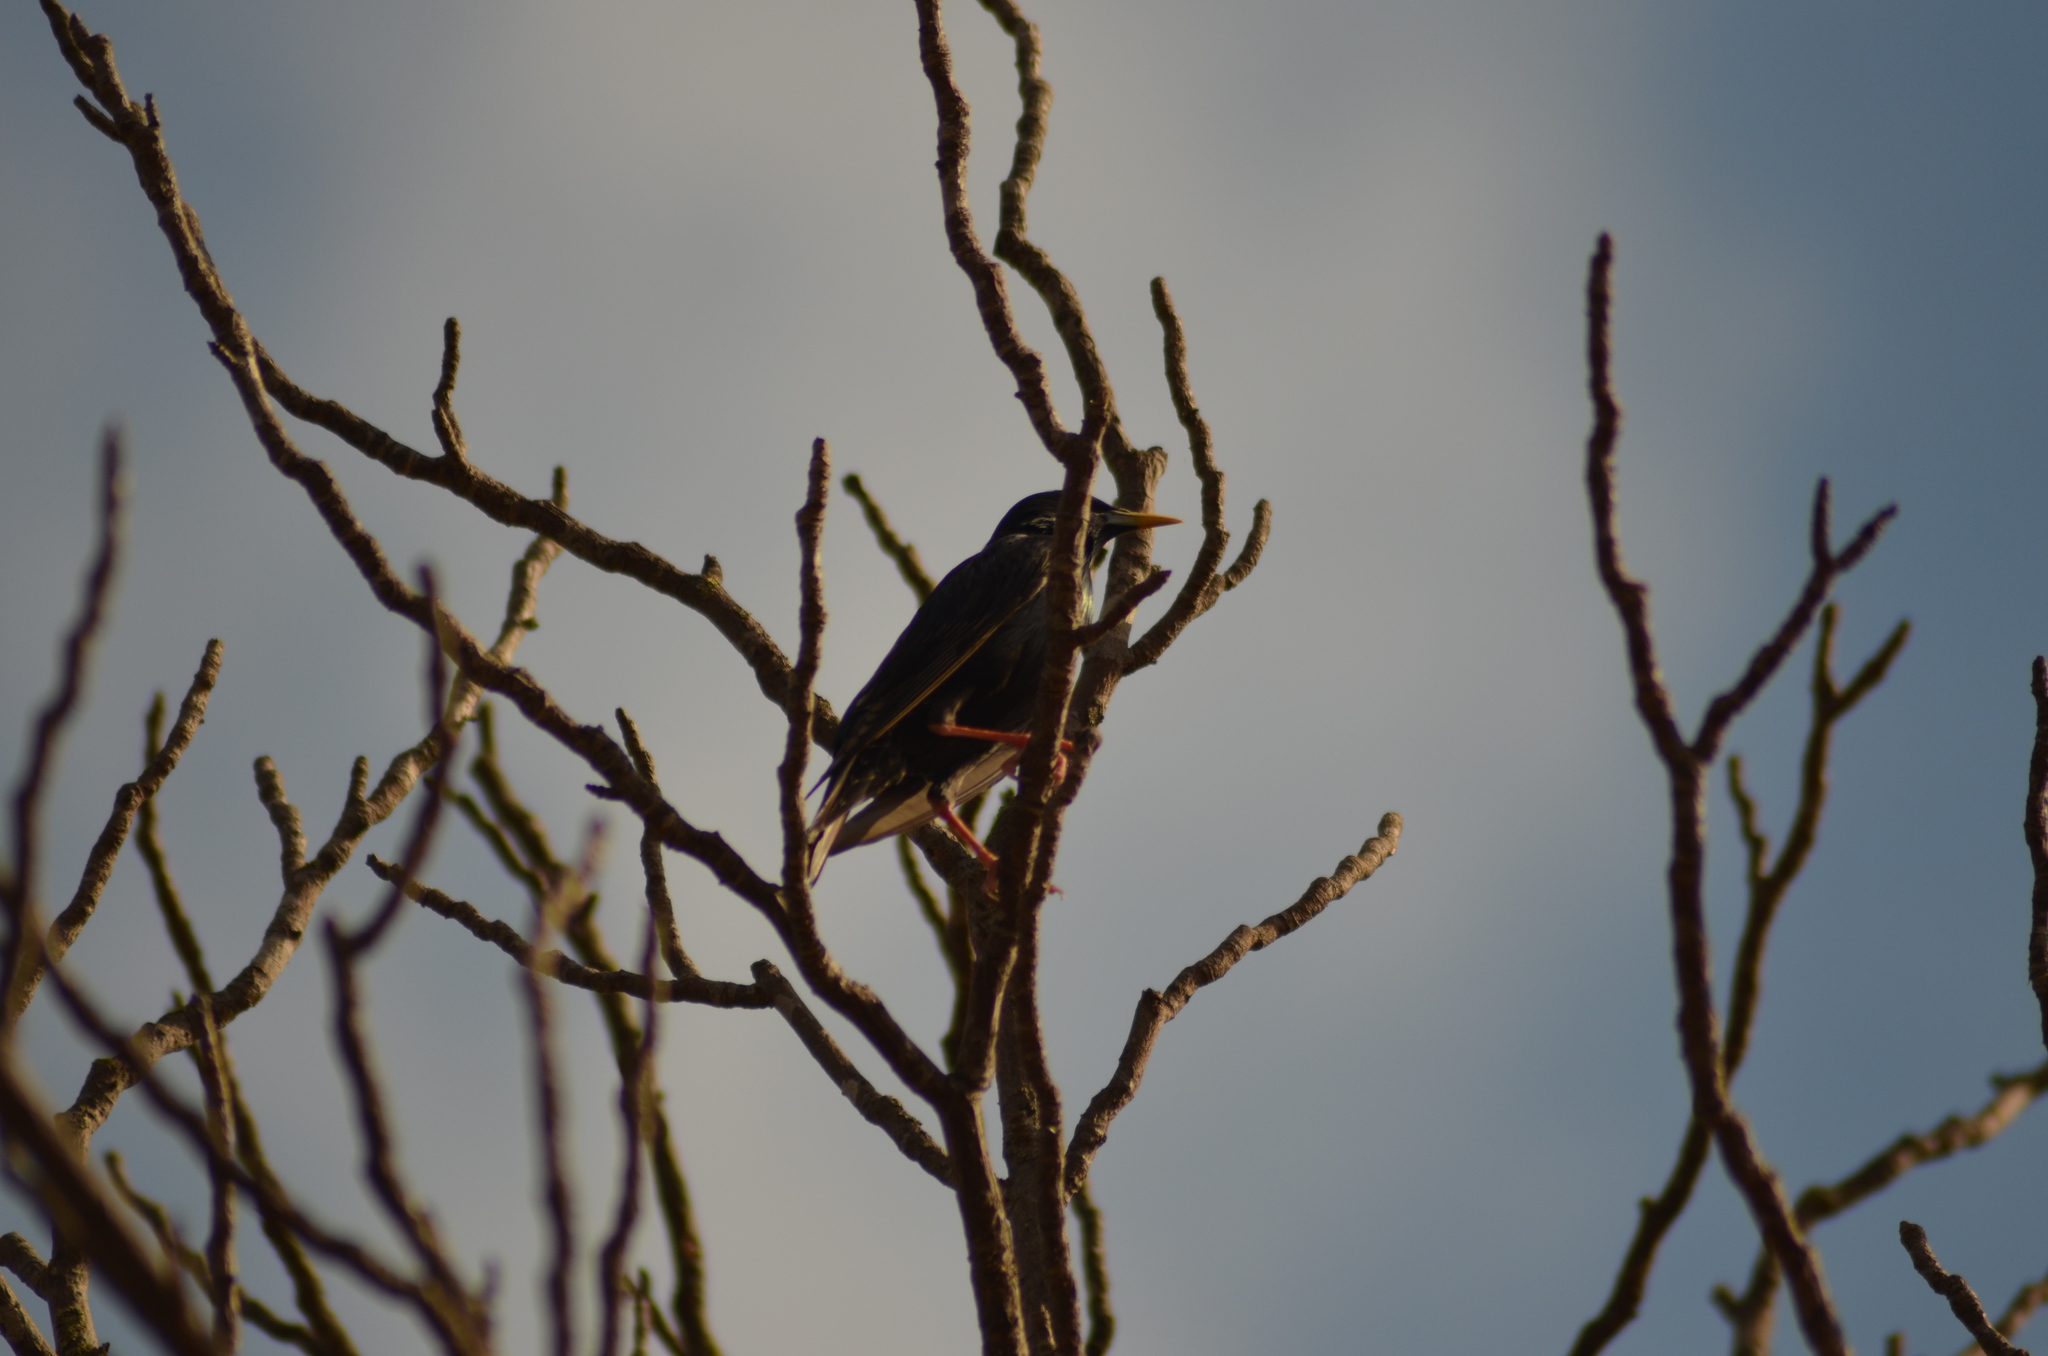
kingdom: Animalia
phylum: Chordata
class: Aves
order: Passeriformes
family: Sturnidae
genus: Sturnus
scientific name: Sturnus unicolor
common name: Spotless starling
